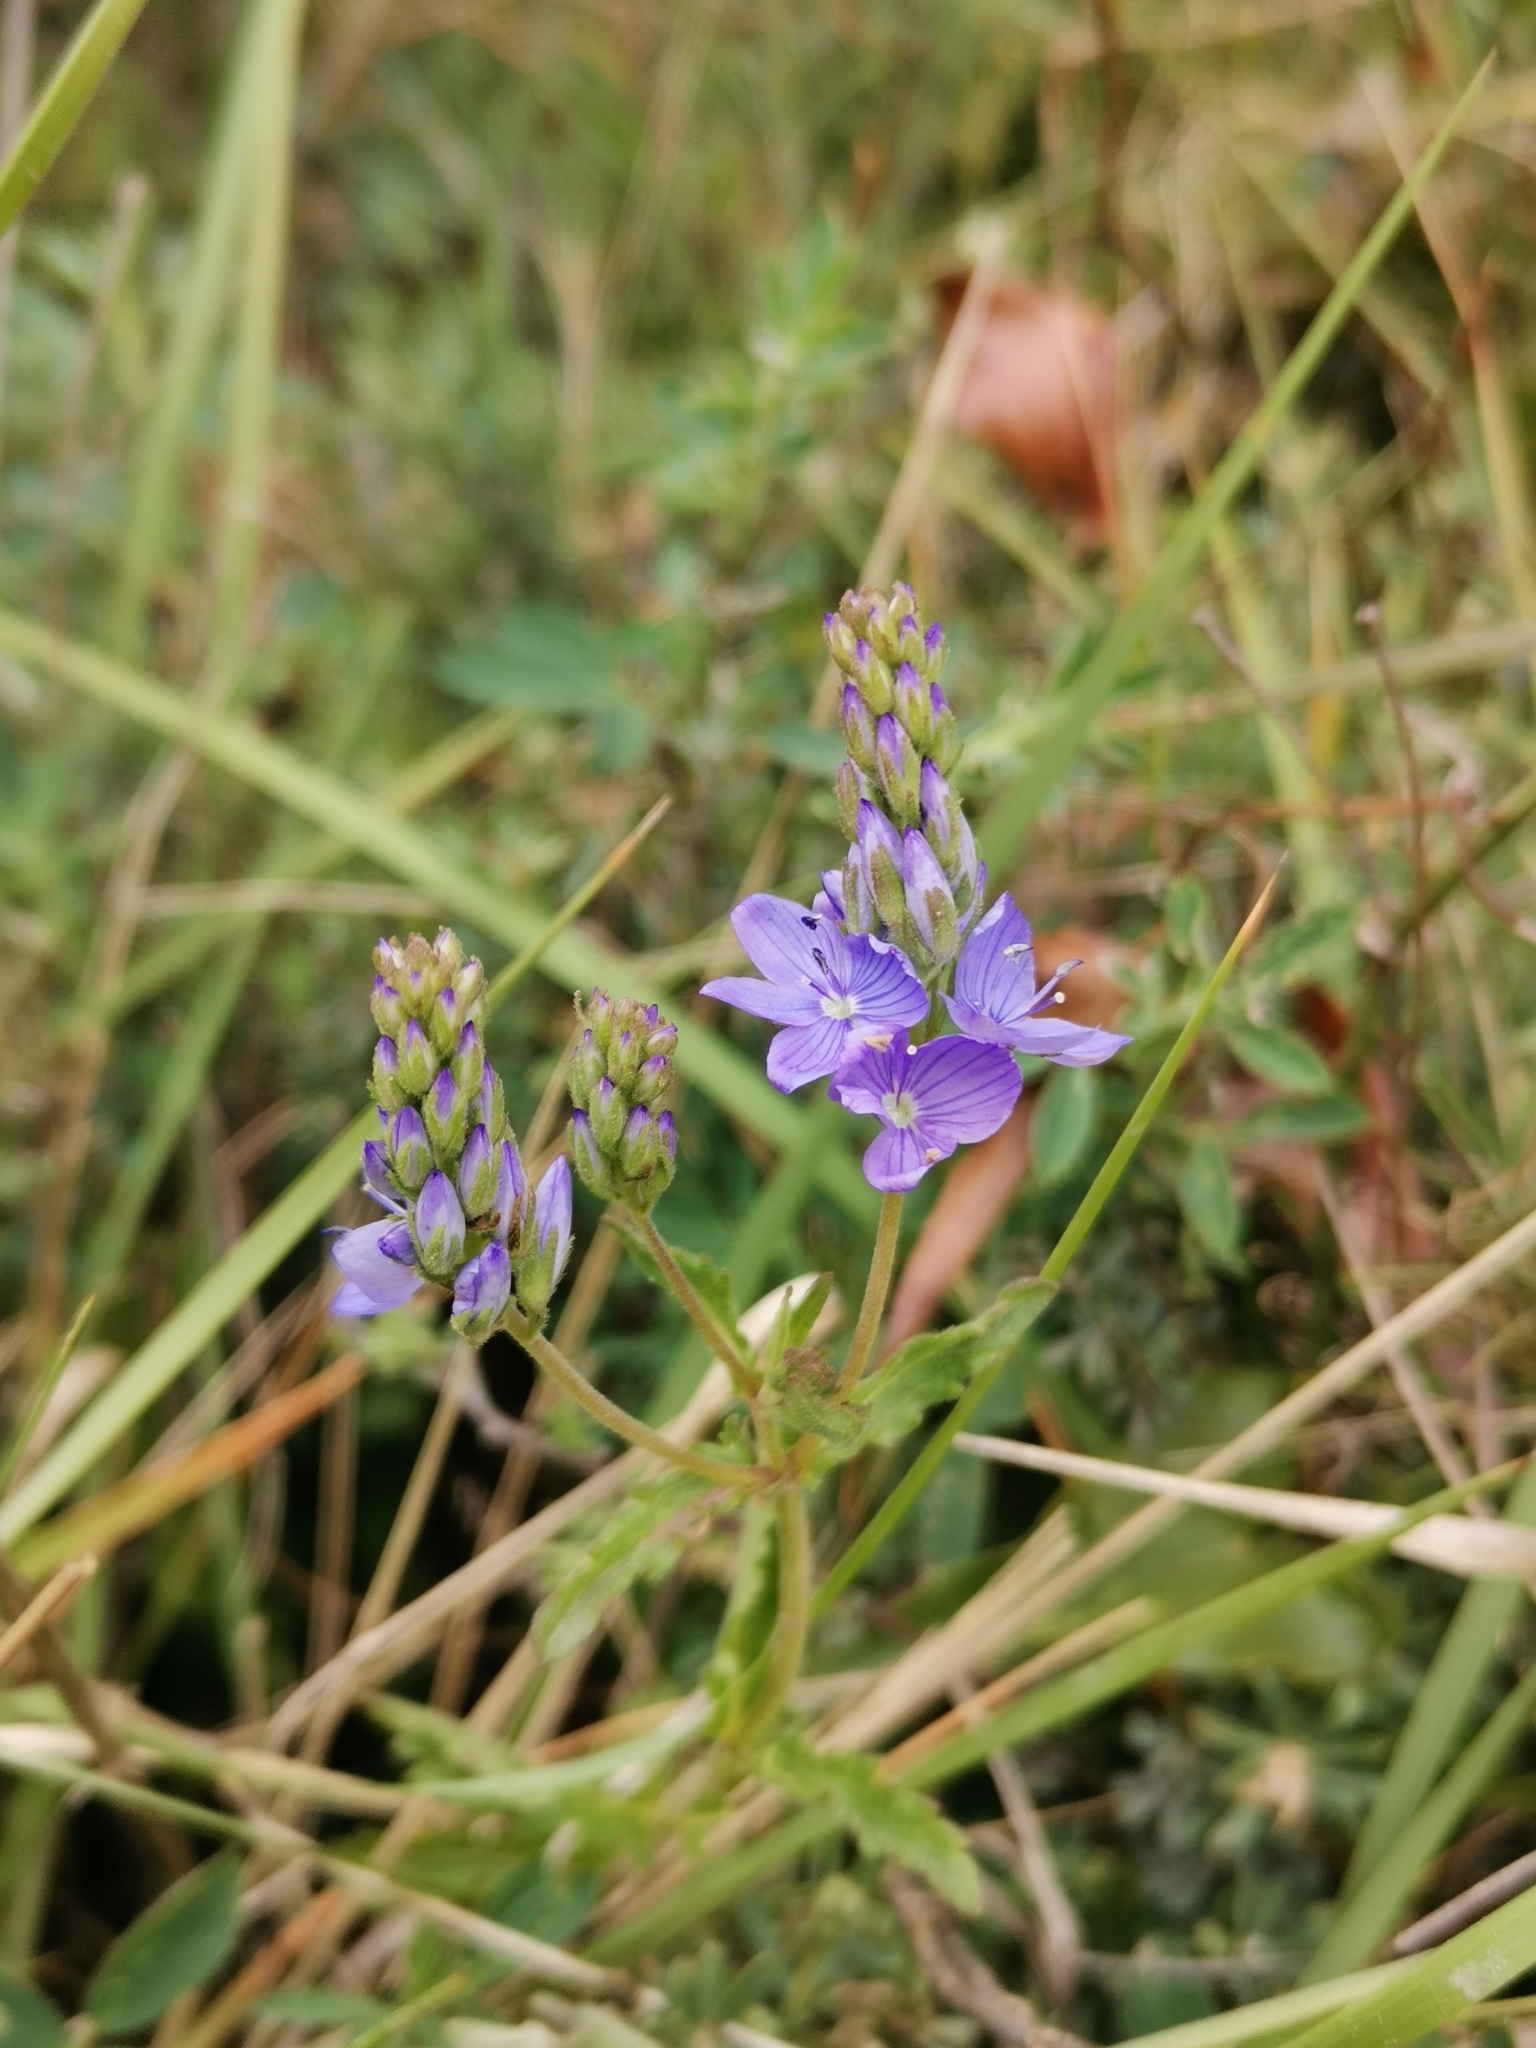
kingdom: Plantae
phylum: Tracheophyta
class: Magnoliopsida
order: Lamiales
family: Plantaginaceae
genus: Veronica
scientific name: Veronica orsiniana
